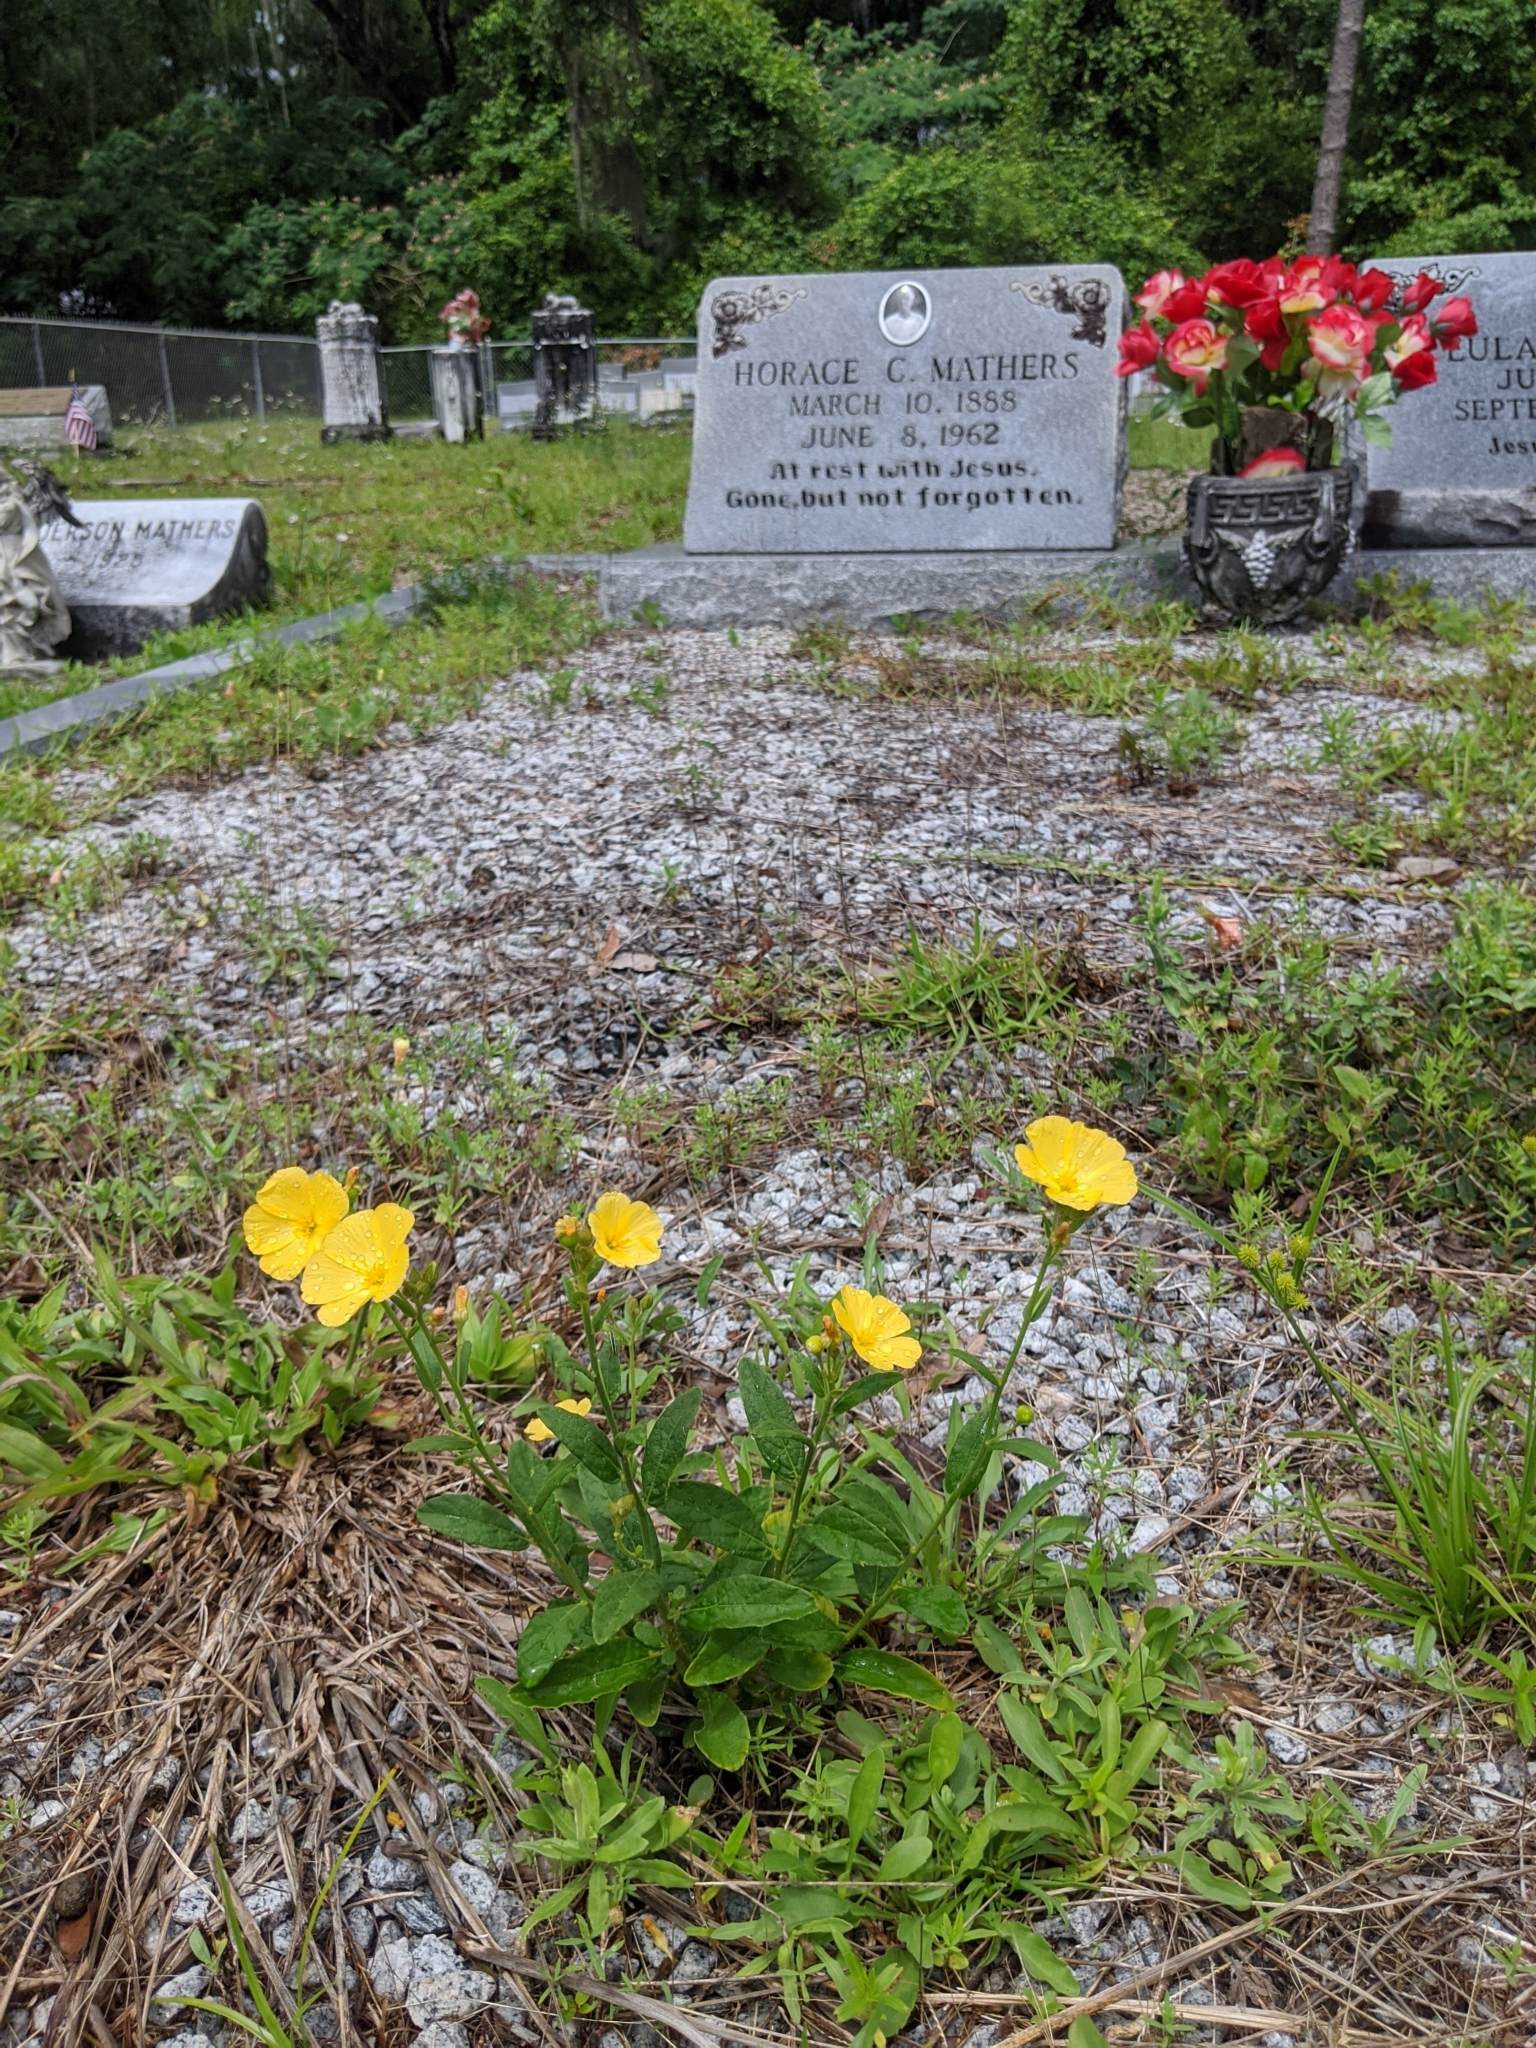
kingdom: Plantae
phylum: Tracheophyta
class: Magnoliopsida
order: Malpighiales
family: Turneraceae
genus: Piriqueta
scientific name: Piriqueta cistoides
